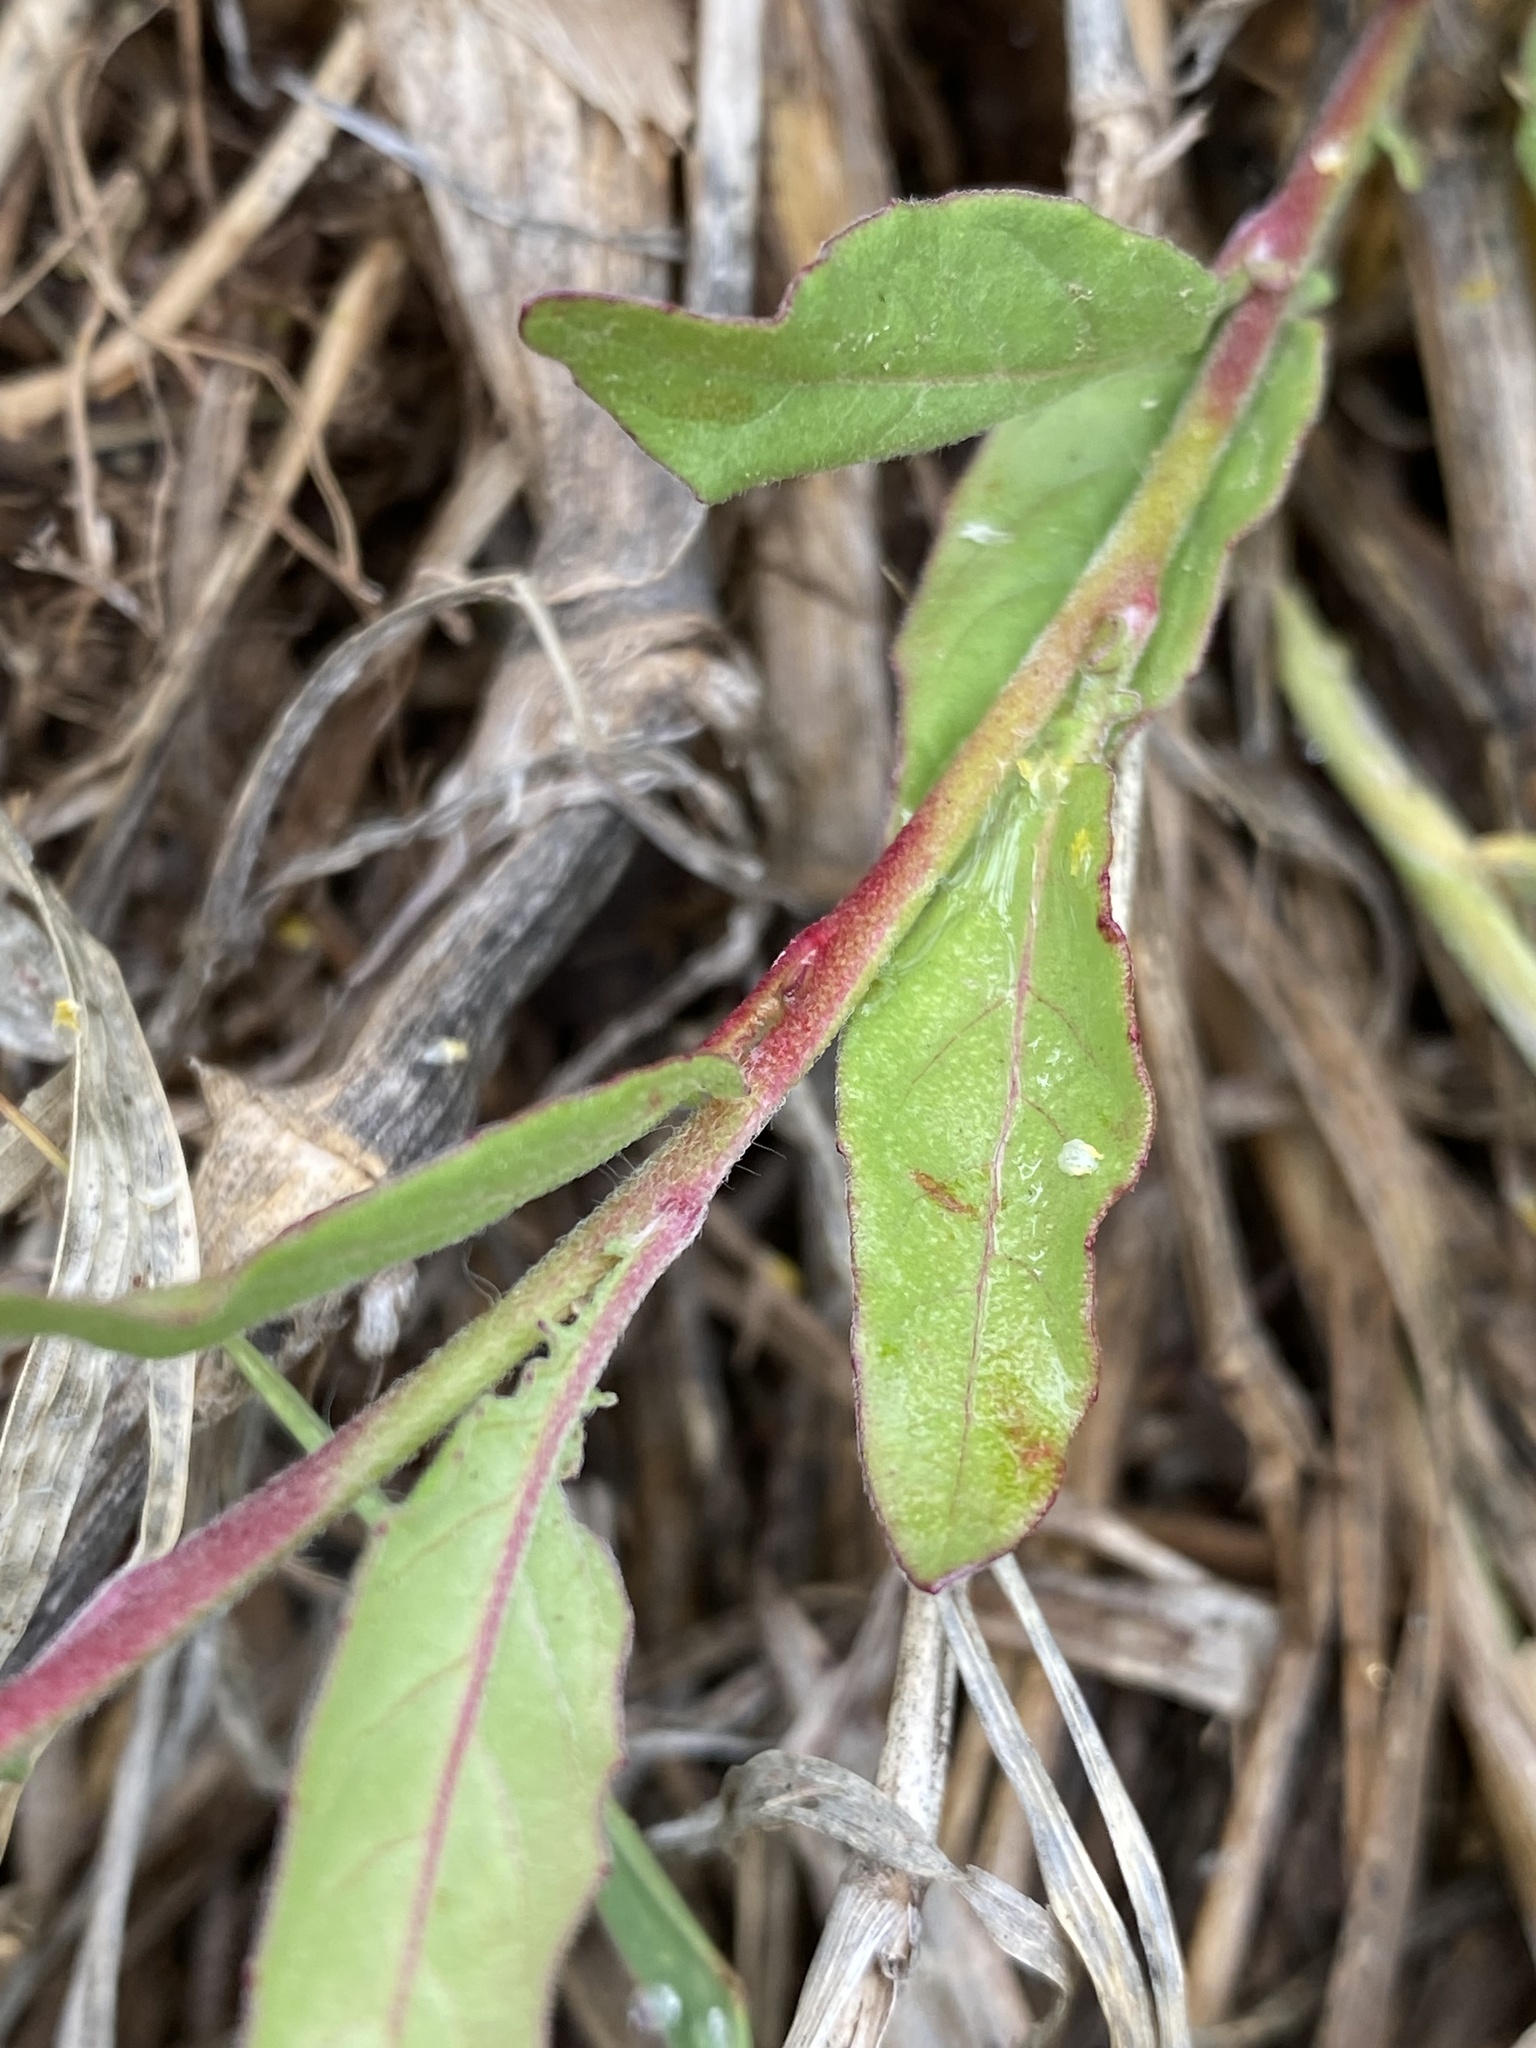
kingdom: Plantae
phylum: Tracheophyta
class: Magnoliopsida
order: Myrtales
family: Onagraceae
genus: Oenothera
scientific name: Oenothera rosea
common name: Rosy evening-primrose
